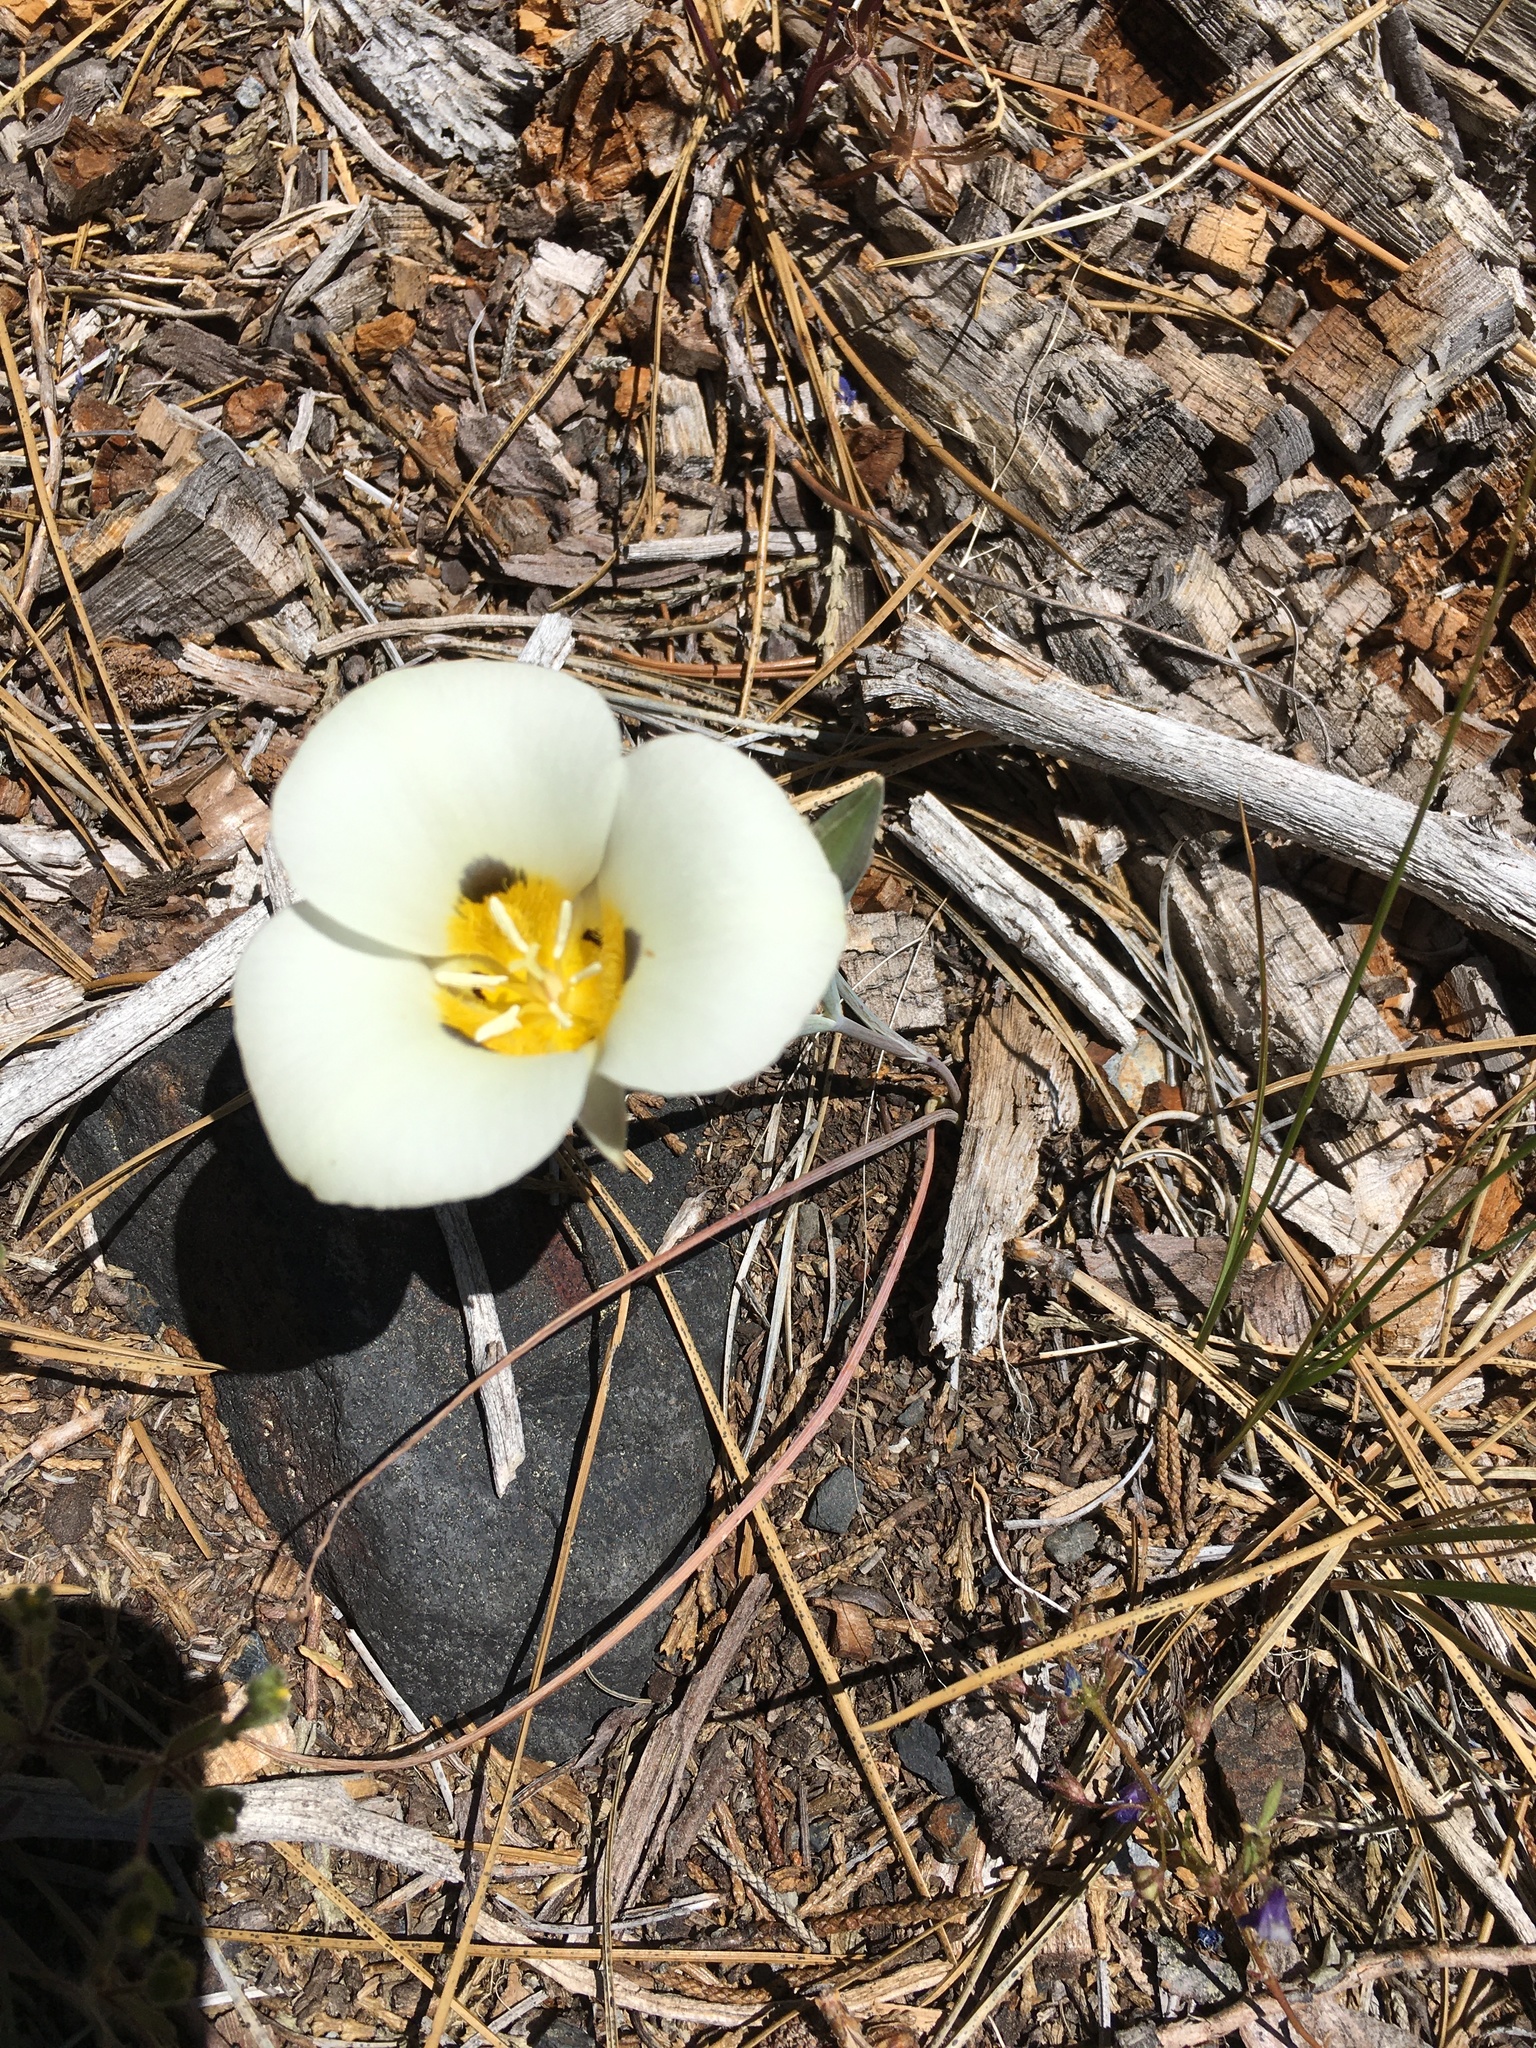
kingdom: Plantae
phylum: Tracheophyta
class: Liliopsida
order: Liliales
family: Liliaceae
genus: Calochortus
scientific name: Calochortus leichtlinii
